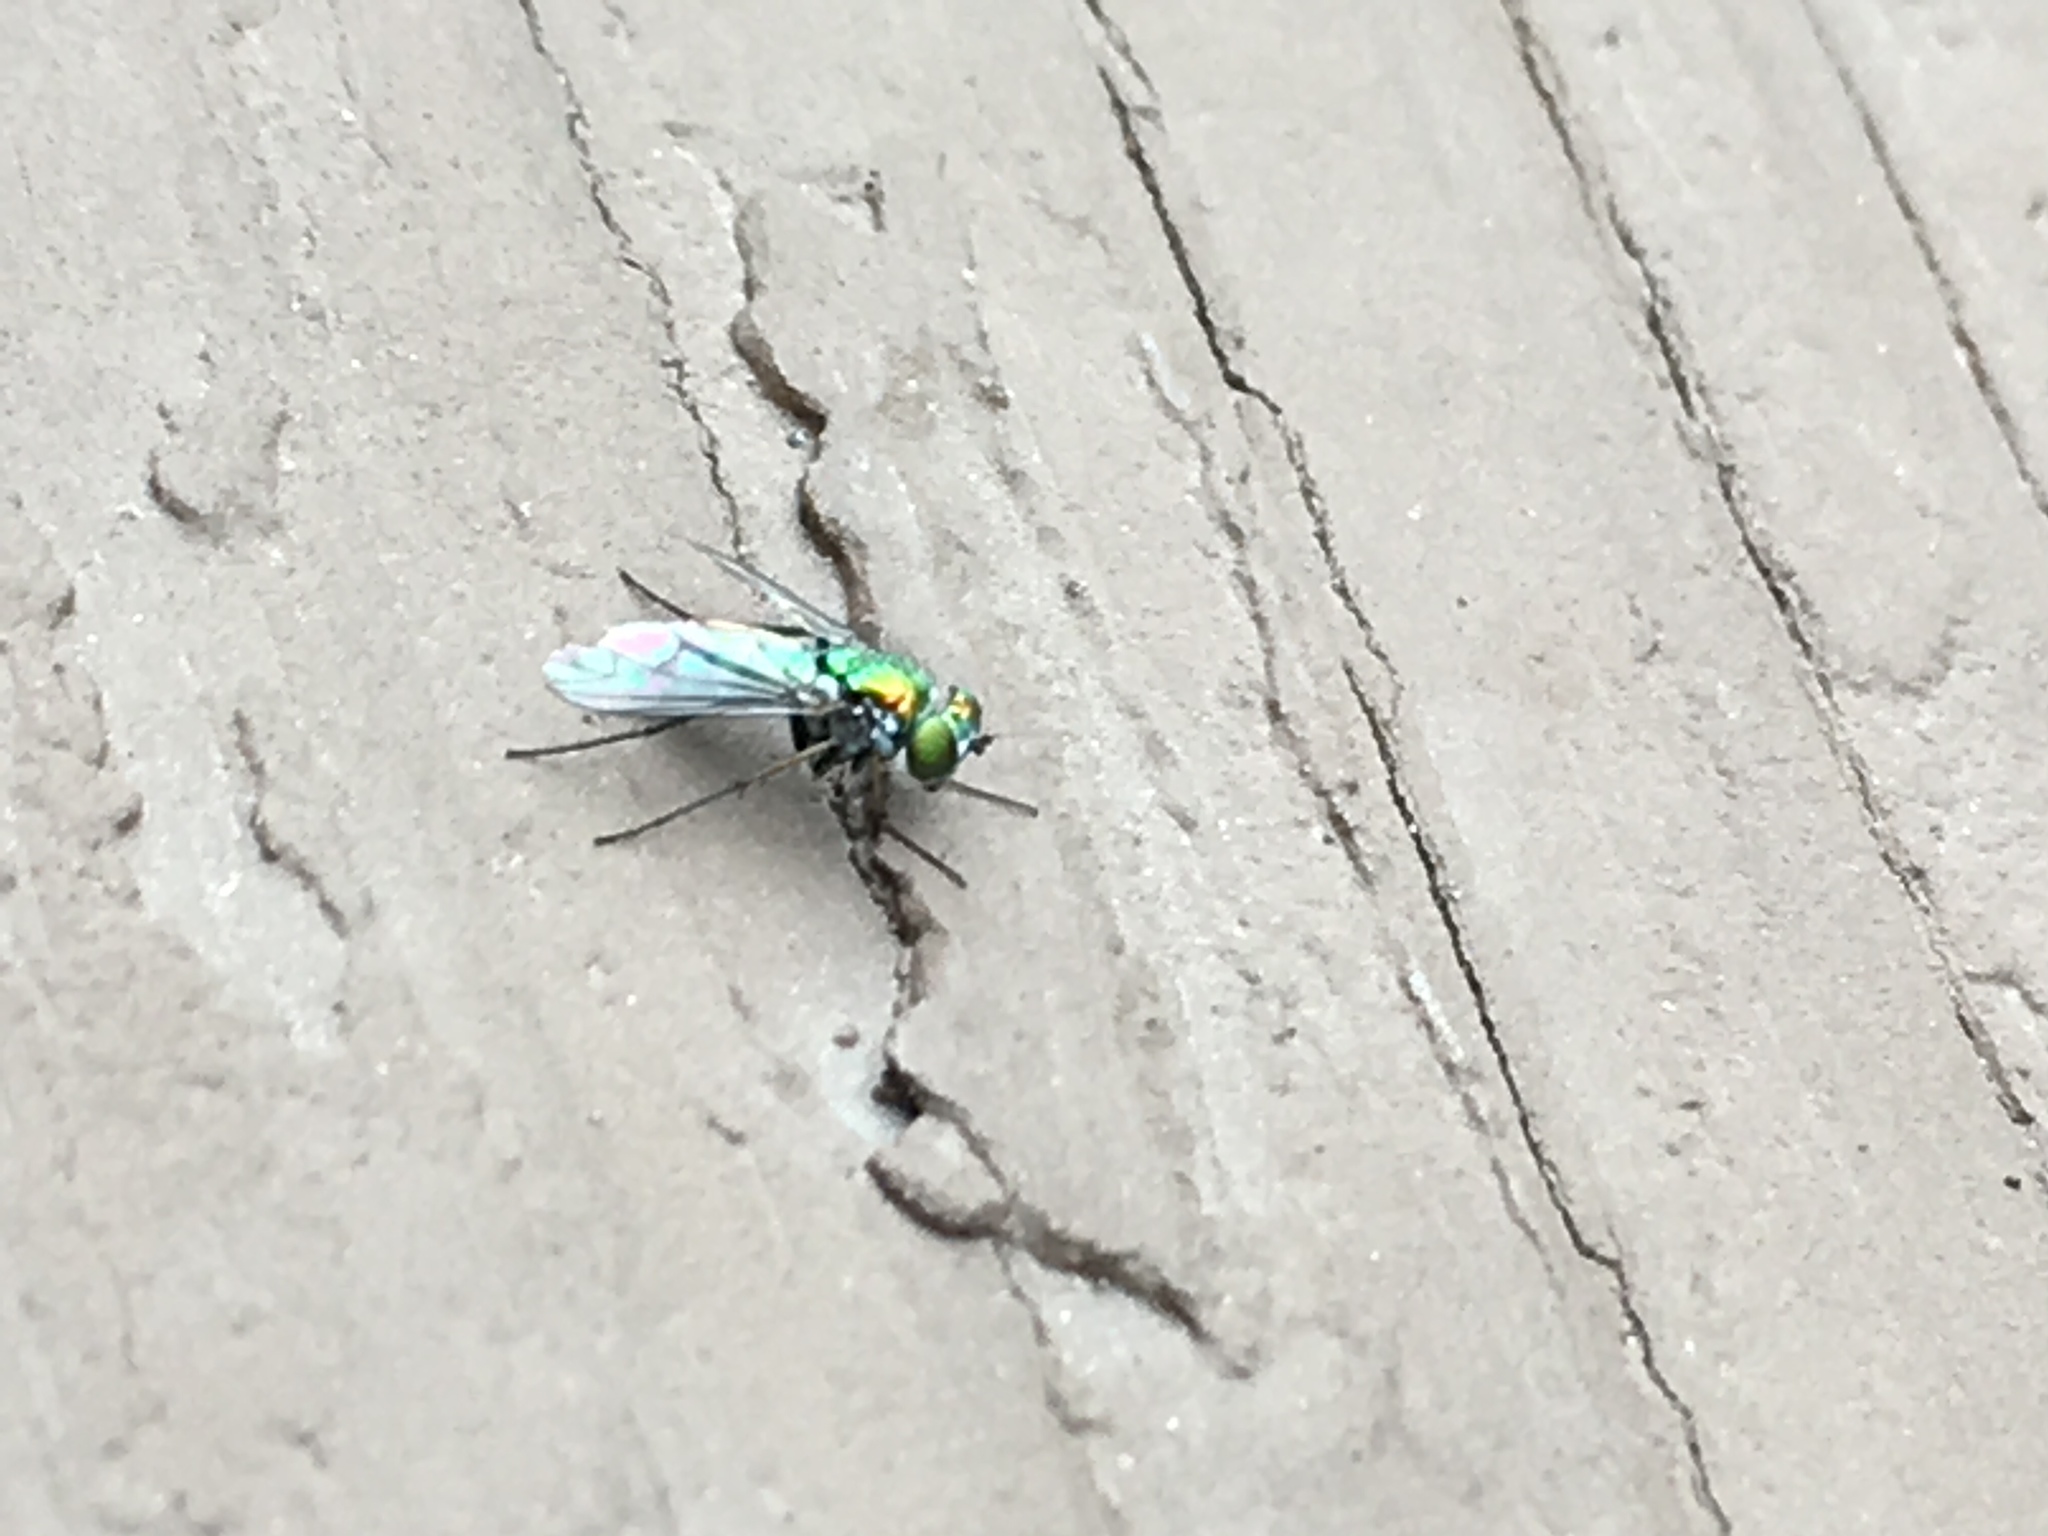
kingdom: Animalia
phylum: Arthropoda
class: Insecta
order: Diptera
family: Dolichopodidae
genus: Condylostylus
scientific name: Condylostylus longicornis
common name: Long-legged fly
